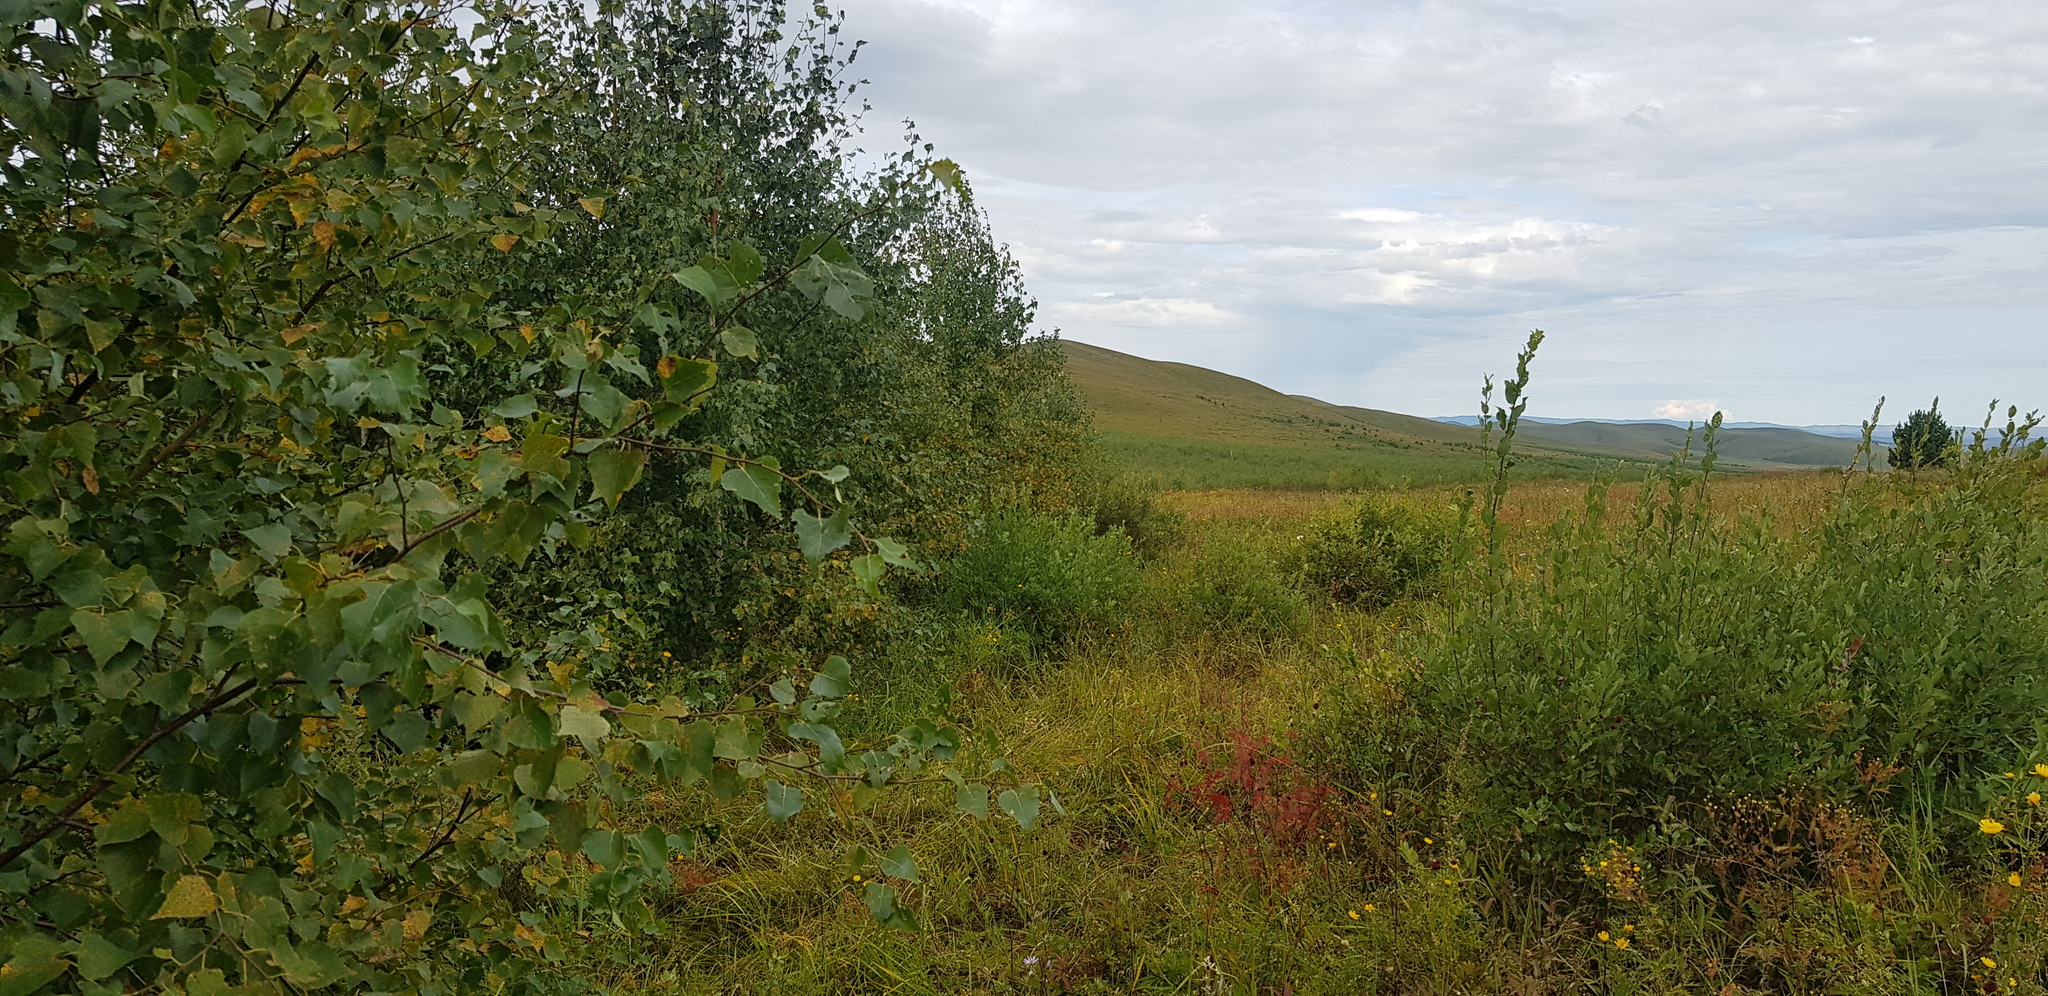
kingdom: Plantae
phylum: Tracheophyta
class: Magnoliopsida
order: Fagales
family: Betulaceae
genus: Betula
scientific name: Betula pendula
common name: Silver birch
